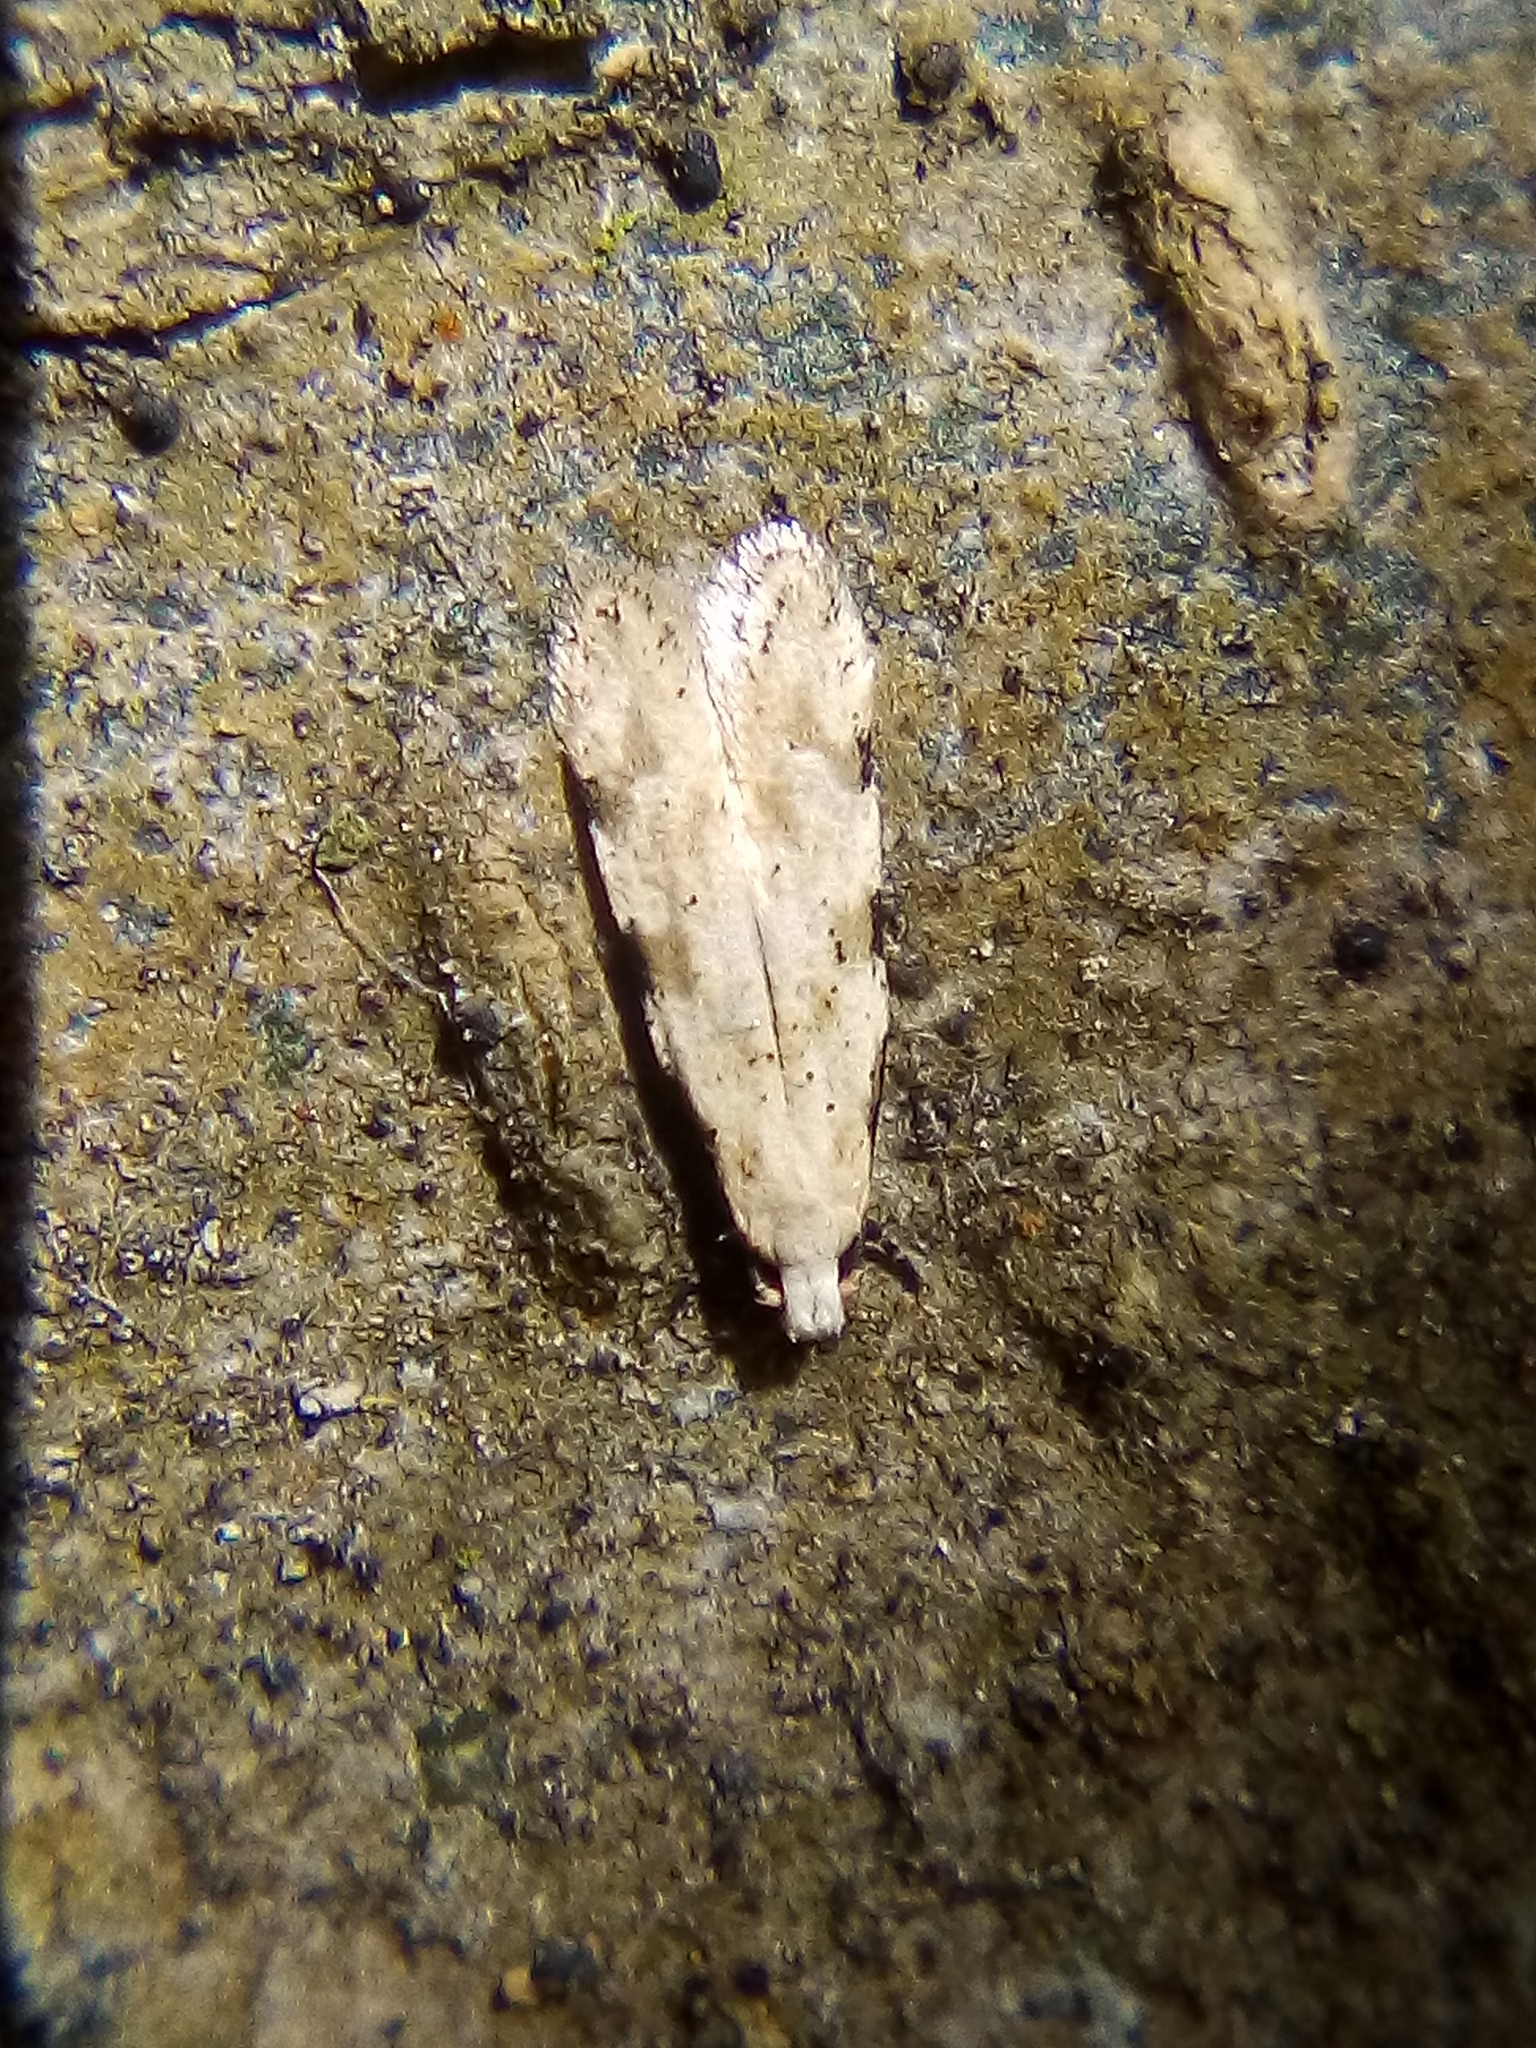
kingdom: Animalia
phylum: Arthropoda
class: Insecta
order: Lepidoptera
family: Tineidae
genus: Endophthora
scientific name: Endophthora omogramma
